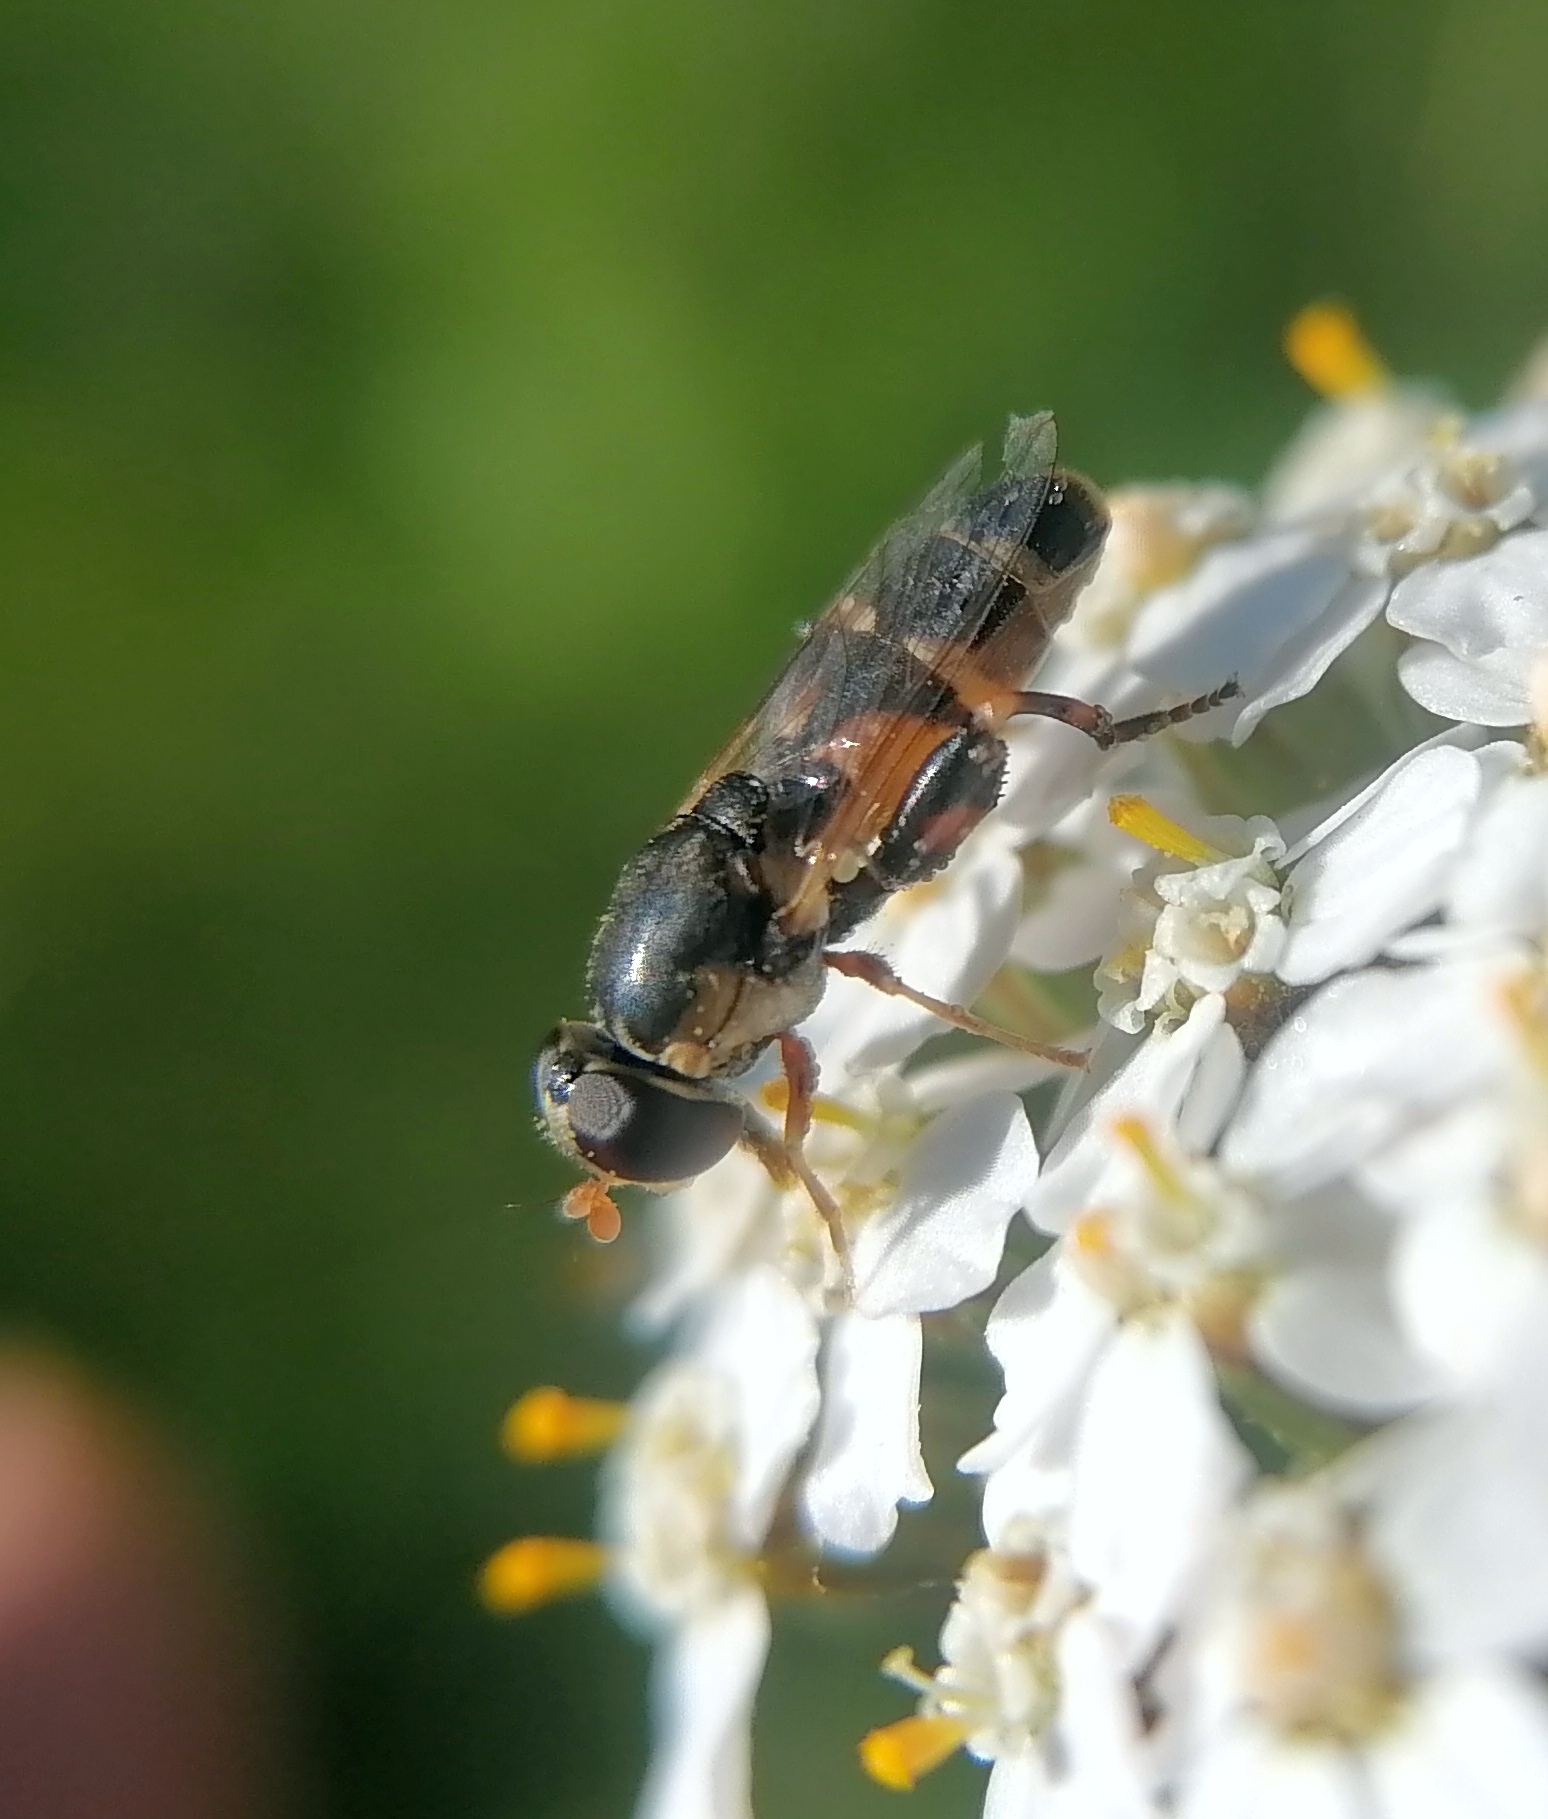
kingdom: Animalia
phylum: Arthropoda
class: Insecta
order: Diptera
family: Syrphidae
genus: Syritta
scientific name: Syritta pipiens
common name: Hover fly
